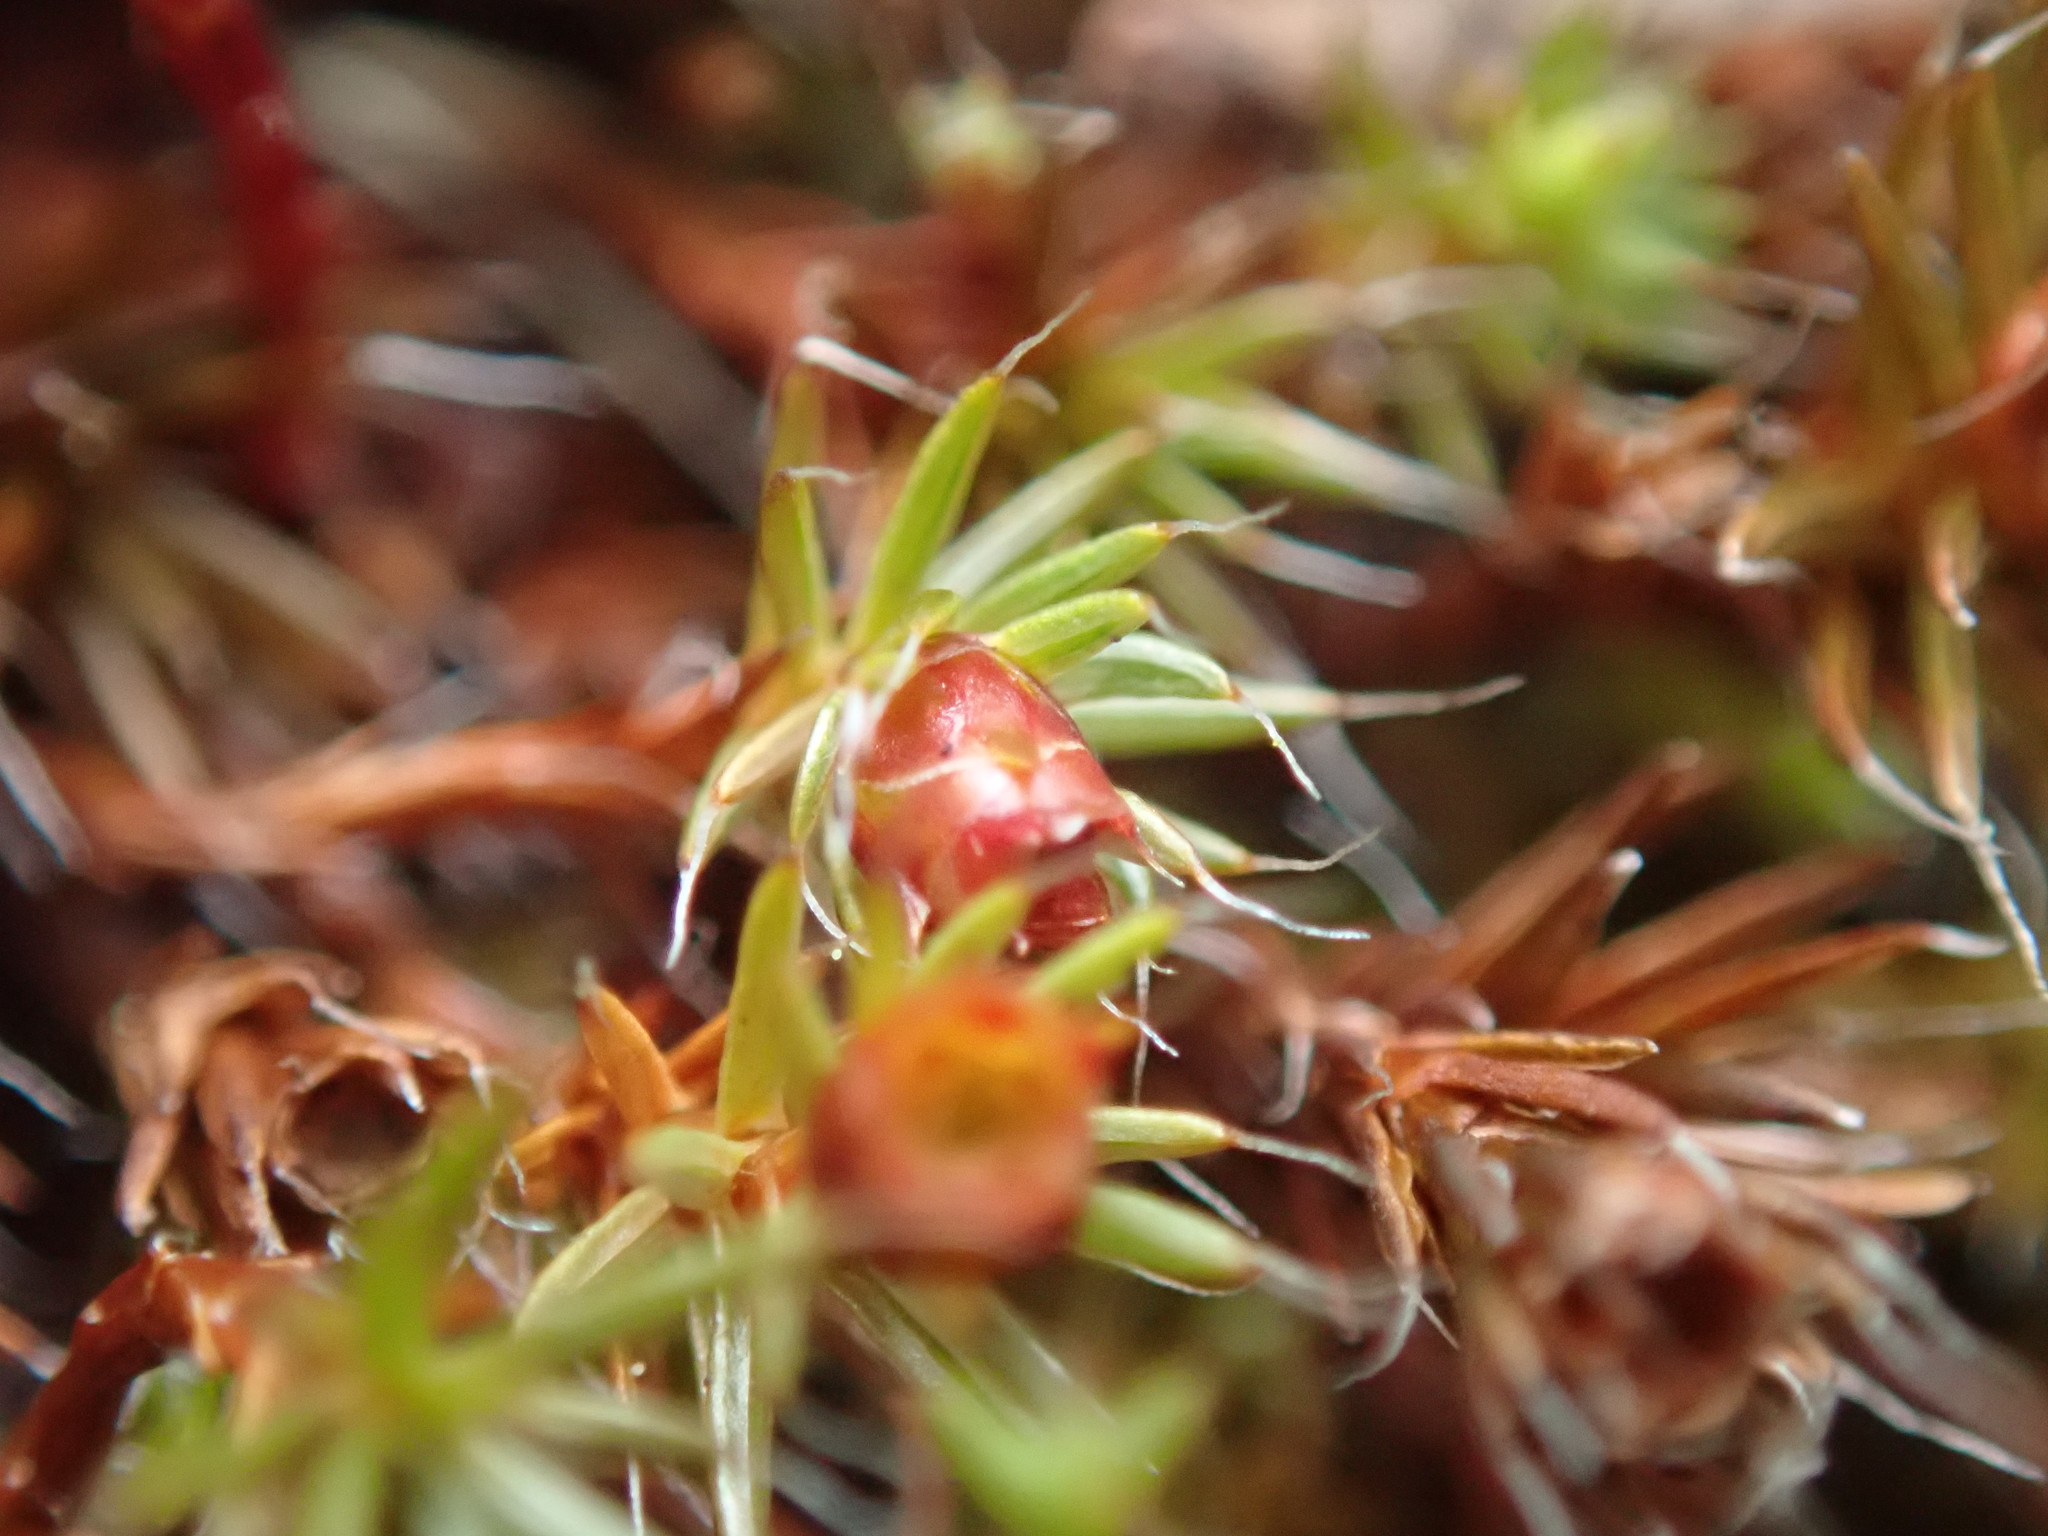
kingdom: Plantae
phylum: Bryophyta
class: Polytrichopsida
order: Polytrichales
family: Polytrichaceae
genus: Polytrichum
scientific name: Polytrichum piliferum
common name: Bristly haircap
